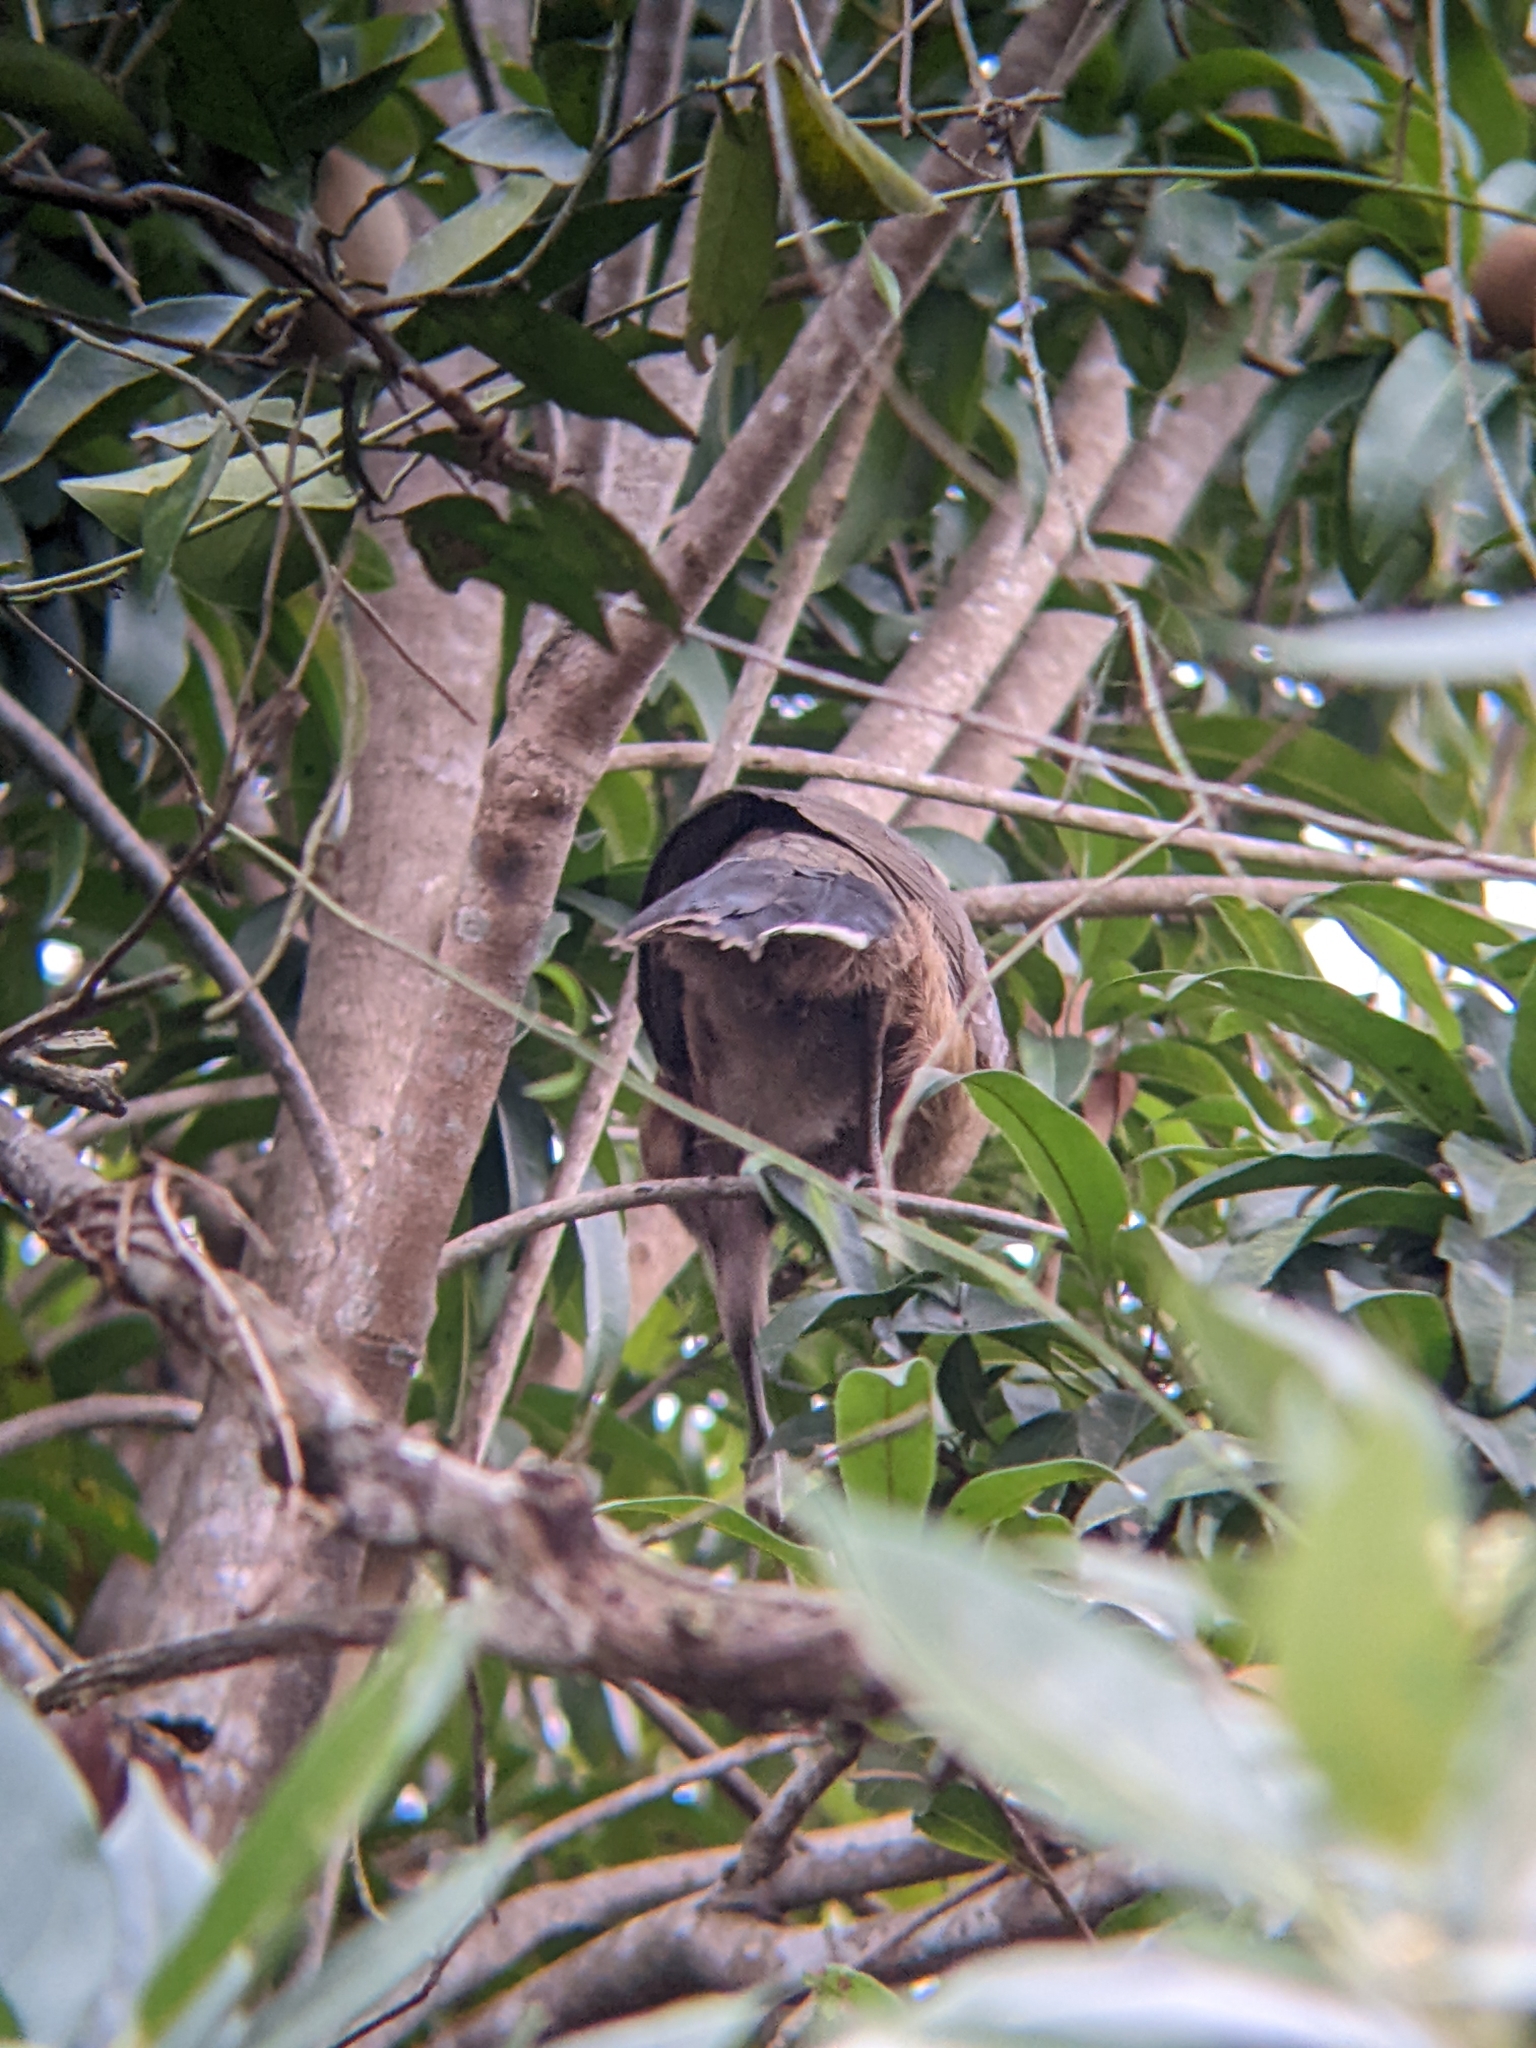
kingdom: Animalia
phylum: Chordata
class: Aves
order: Galliformes
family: Cracidae
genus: Ortalis
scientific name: Ortalis vetula
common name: Plain chachalaca
